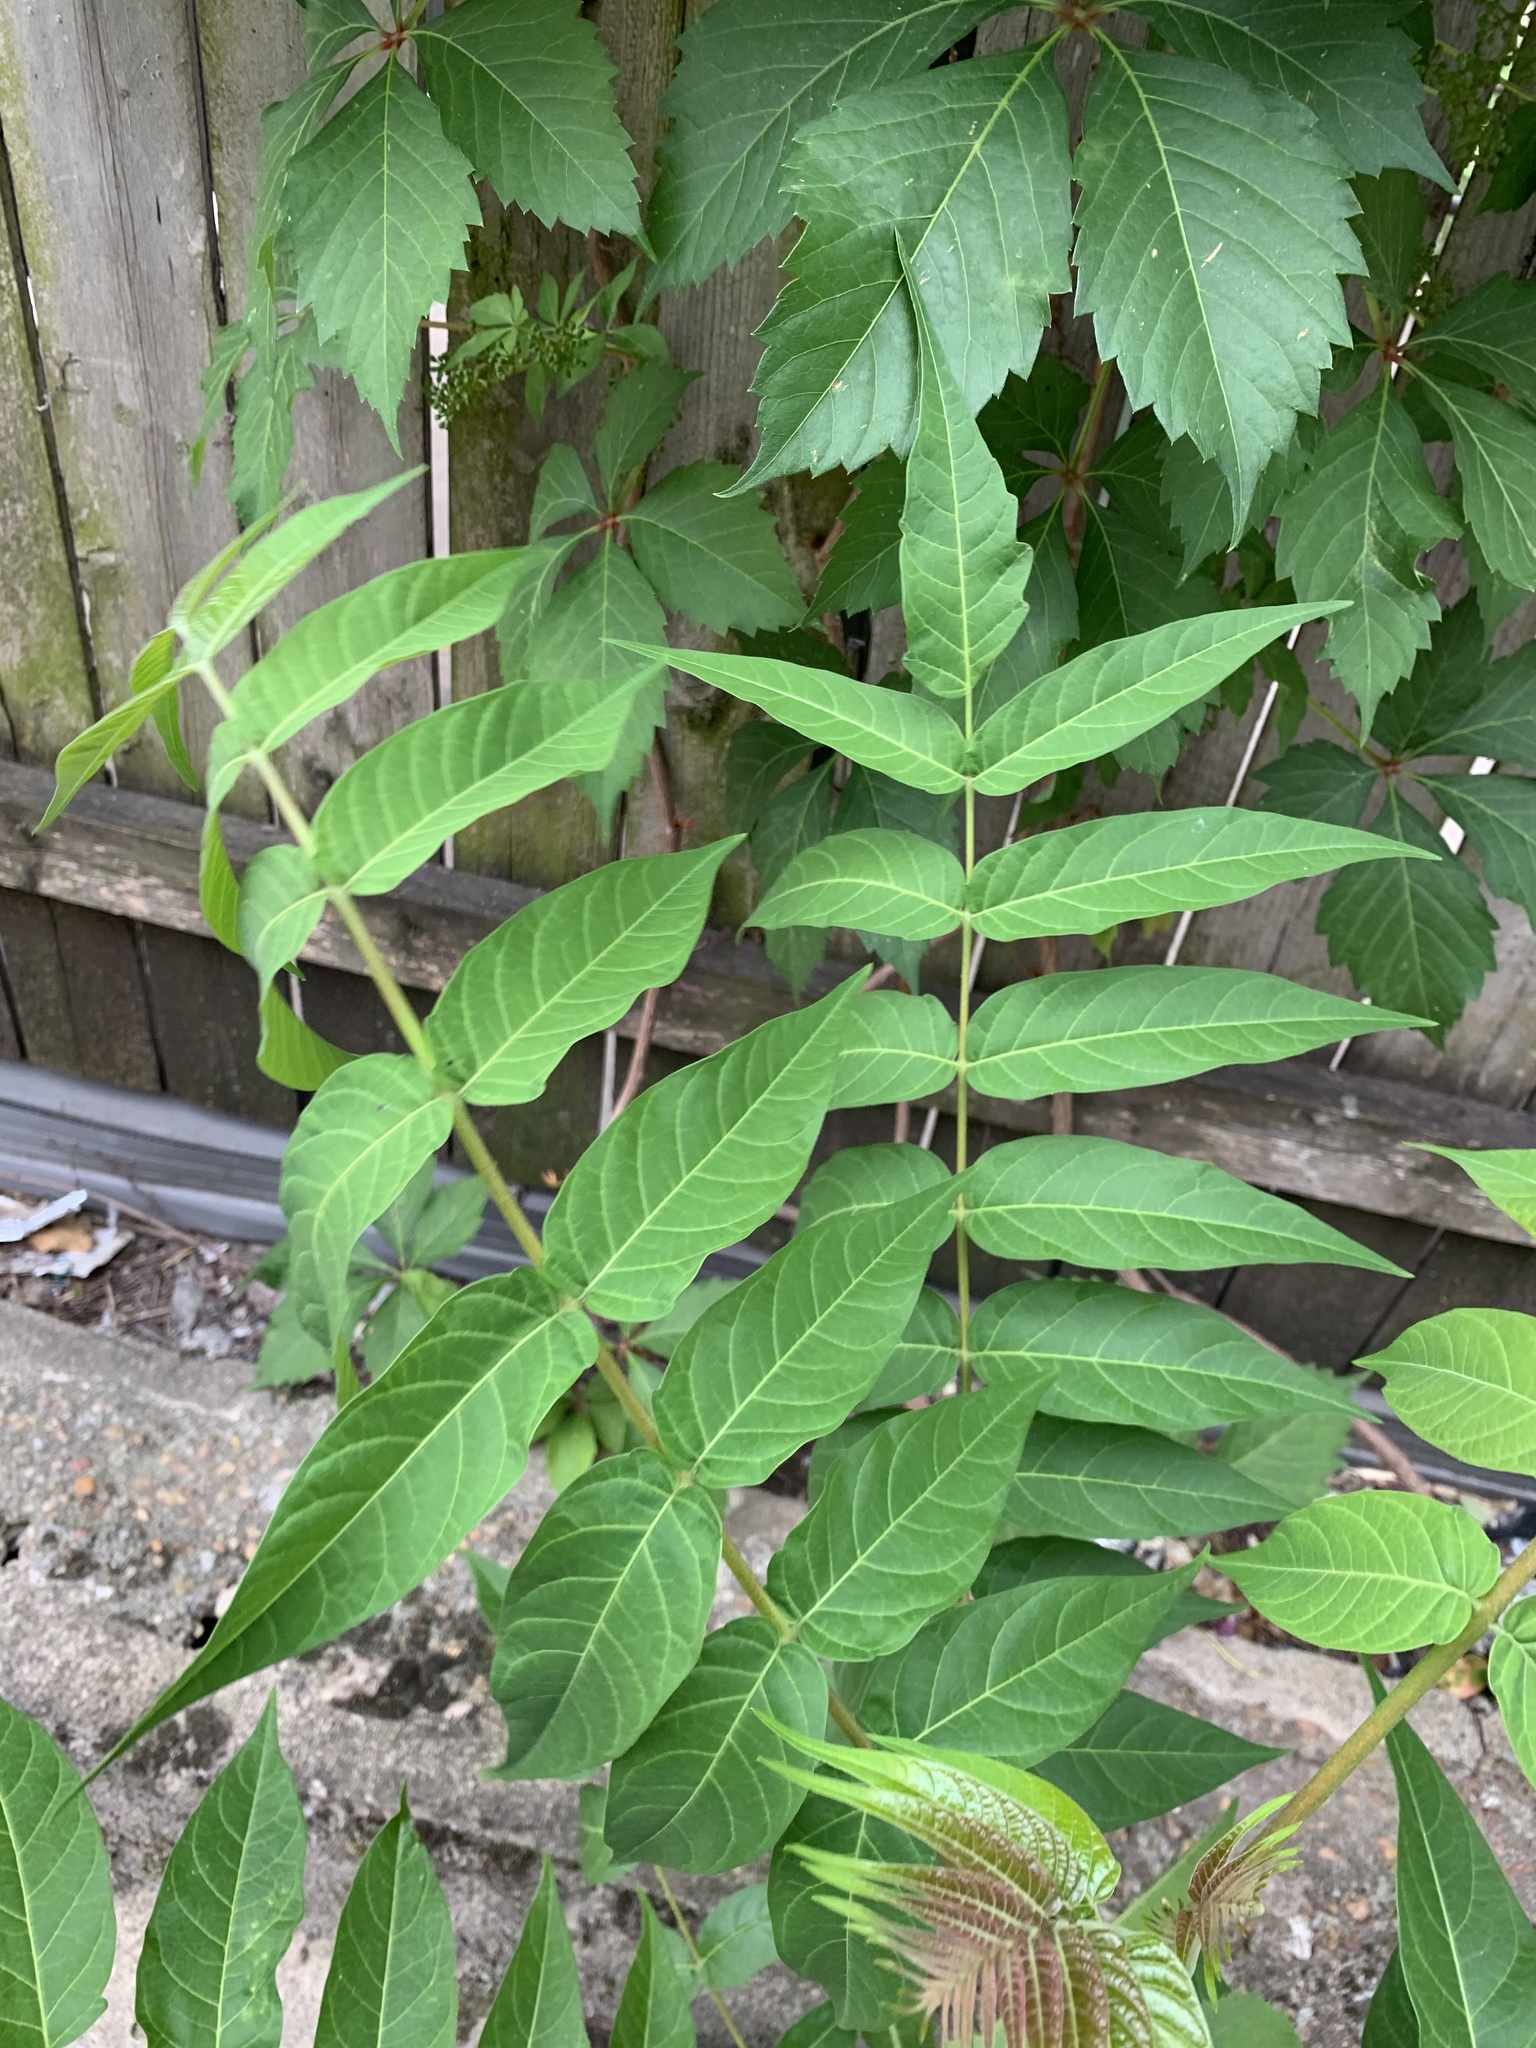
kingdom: Plantae
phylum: Tracheophyta
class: Magnoliopsida
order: Sapindales
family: Simaroubaceae
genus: Ailanthus
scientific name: Ailanthus altissima
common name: Tree-of-heaven
